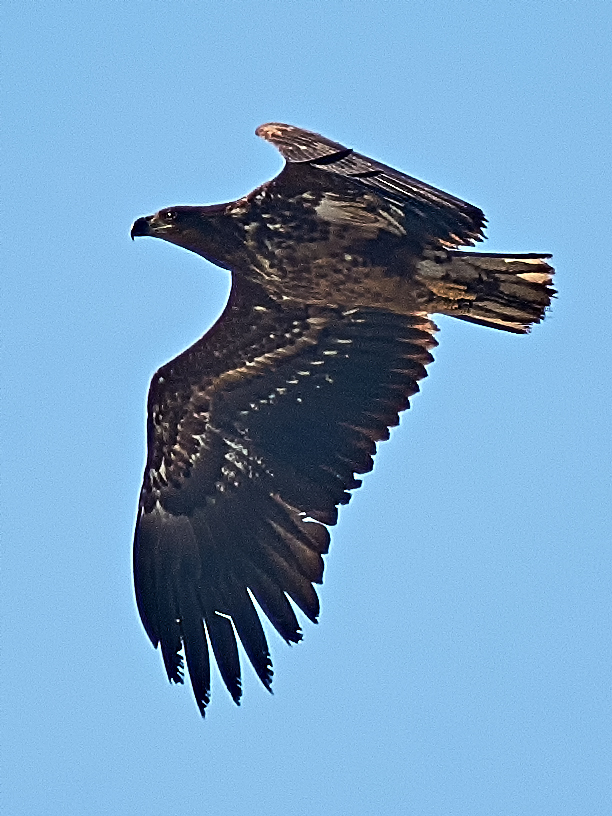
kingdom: Animalia
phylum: Chordata
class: Aves
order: Accipitriformes
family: Accipitridae
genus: Haliaeetus
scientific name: Haliaeetus albicilla
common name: White-tailed eagle
